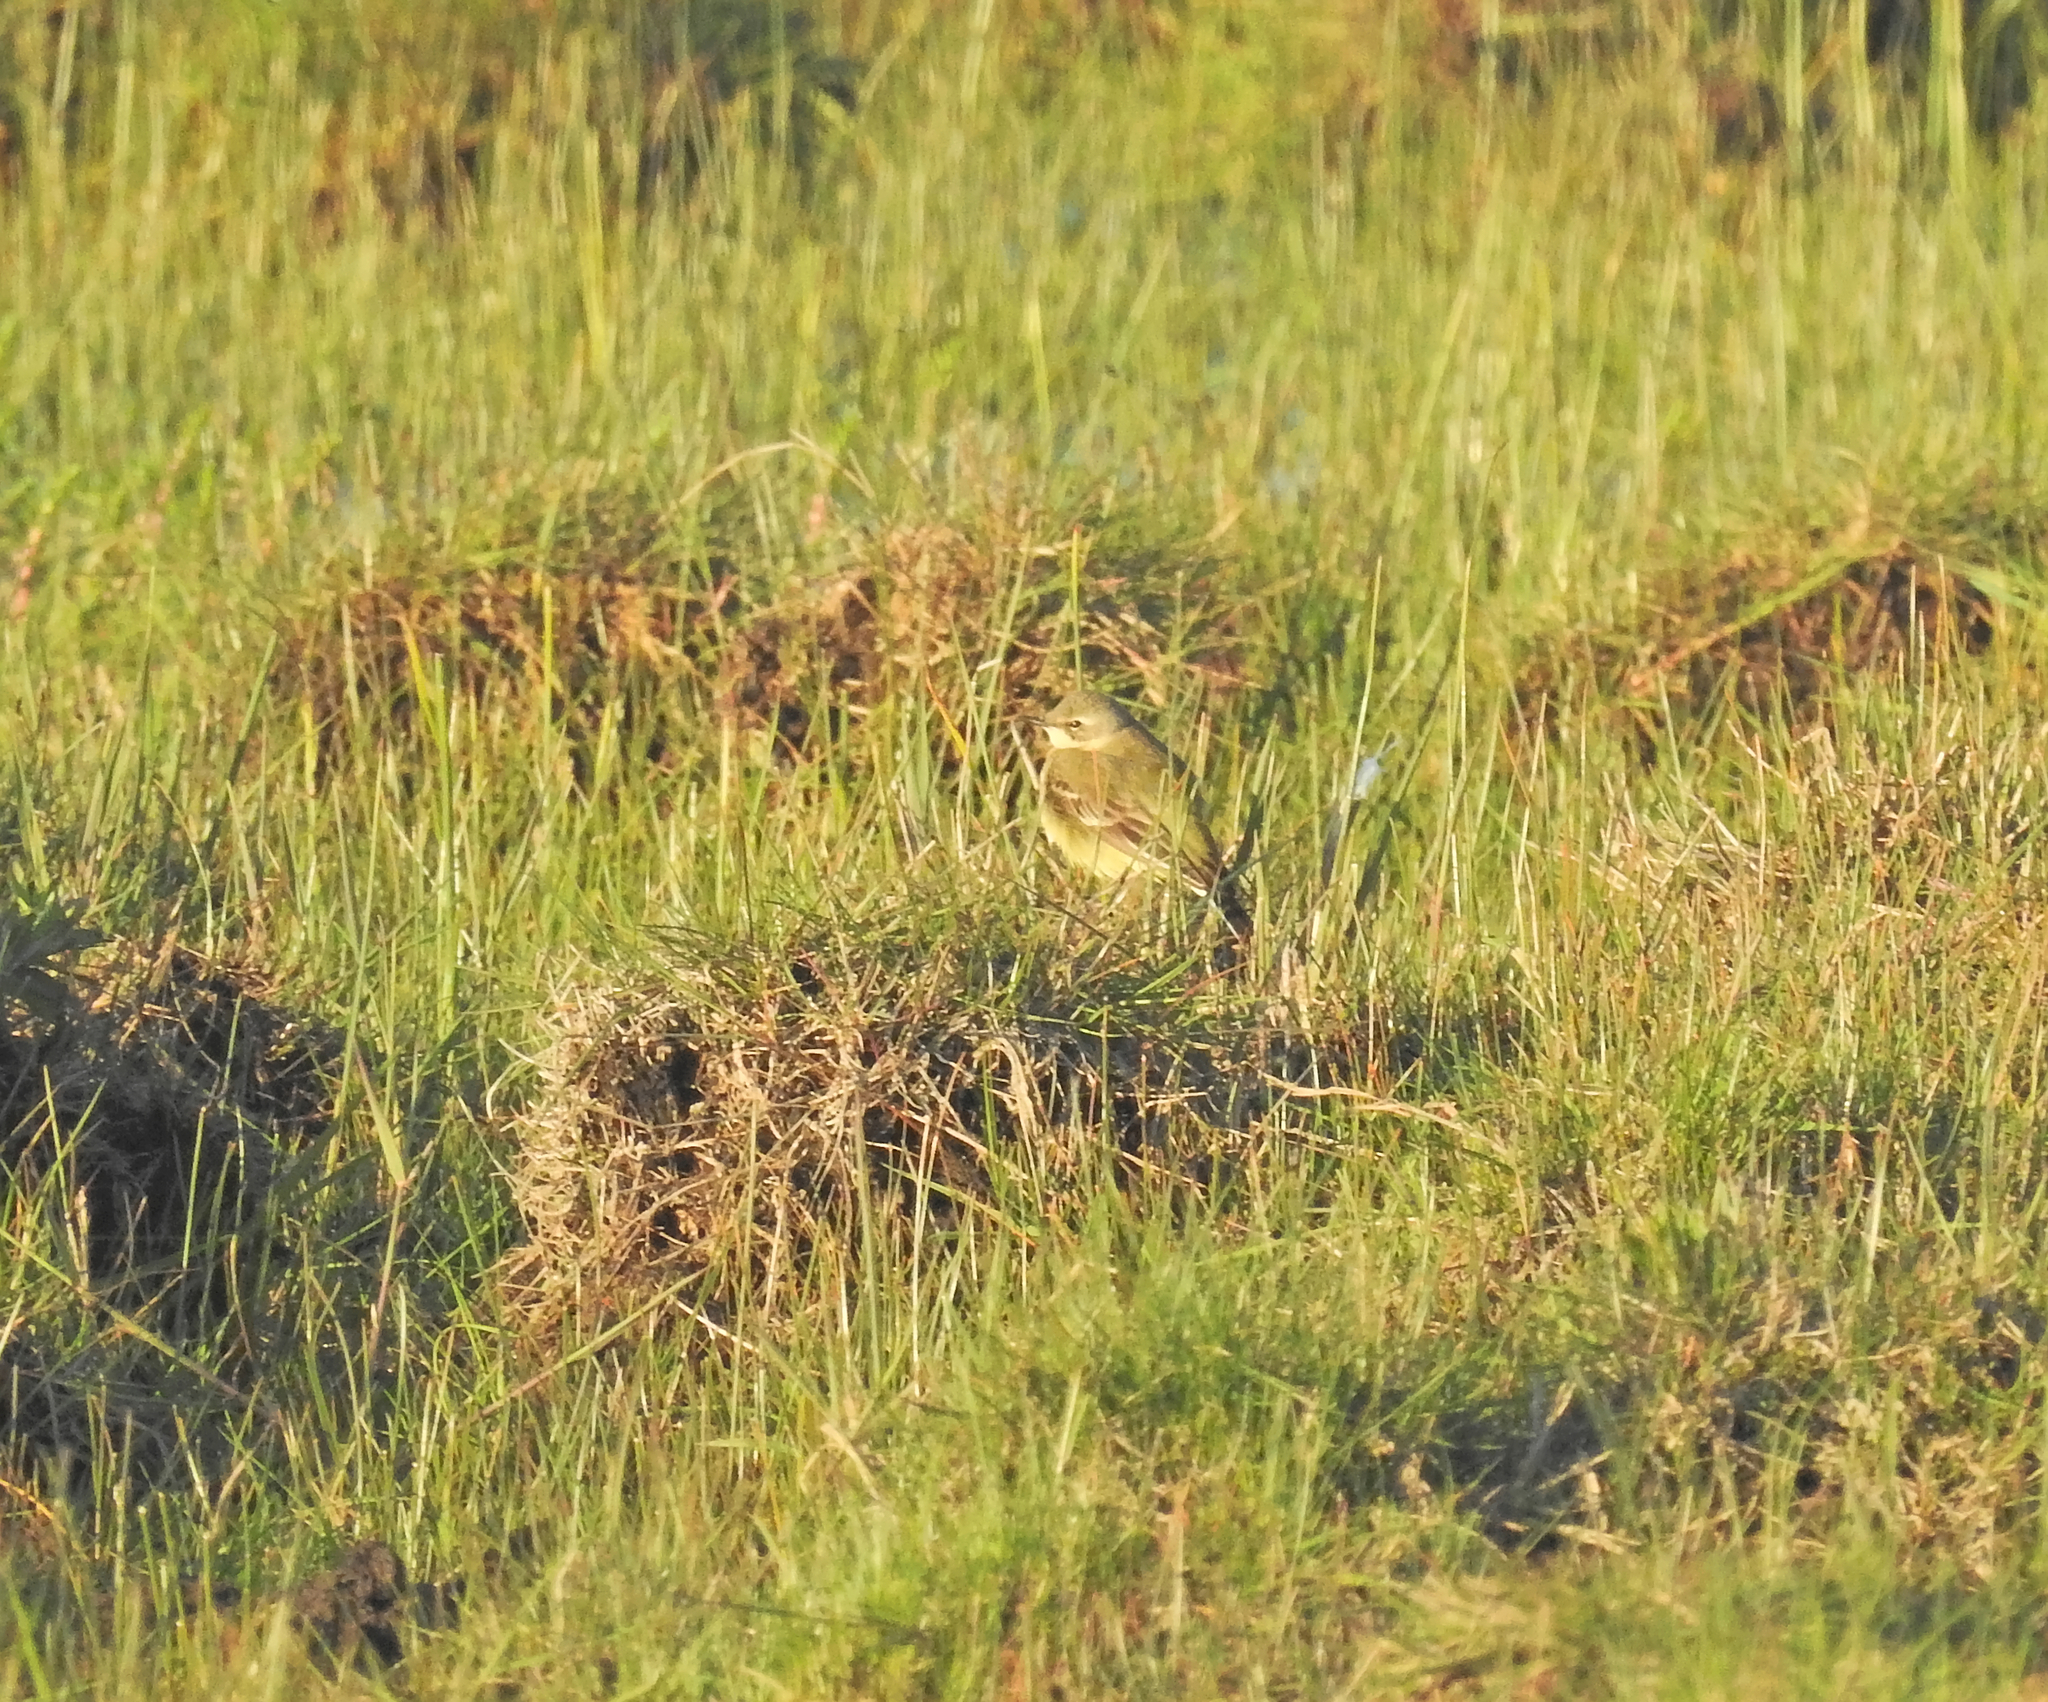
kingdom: Animalia
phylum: Chordata
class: Aves
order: Passeriformes
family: Motacillidae
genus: Motacilla
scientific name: Motacilla flava
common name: Western yellow wagtail
